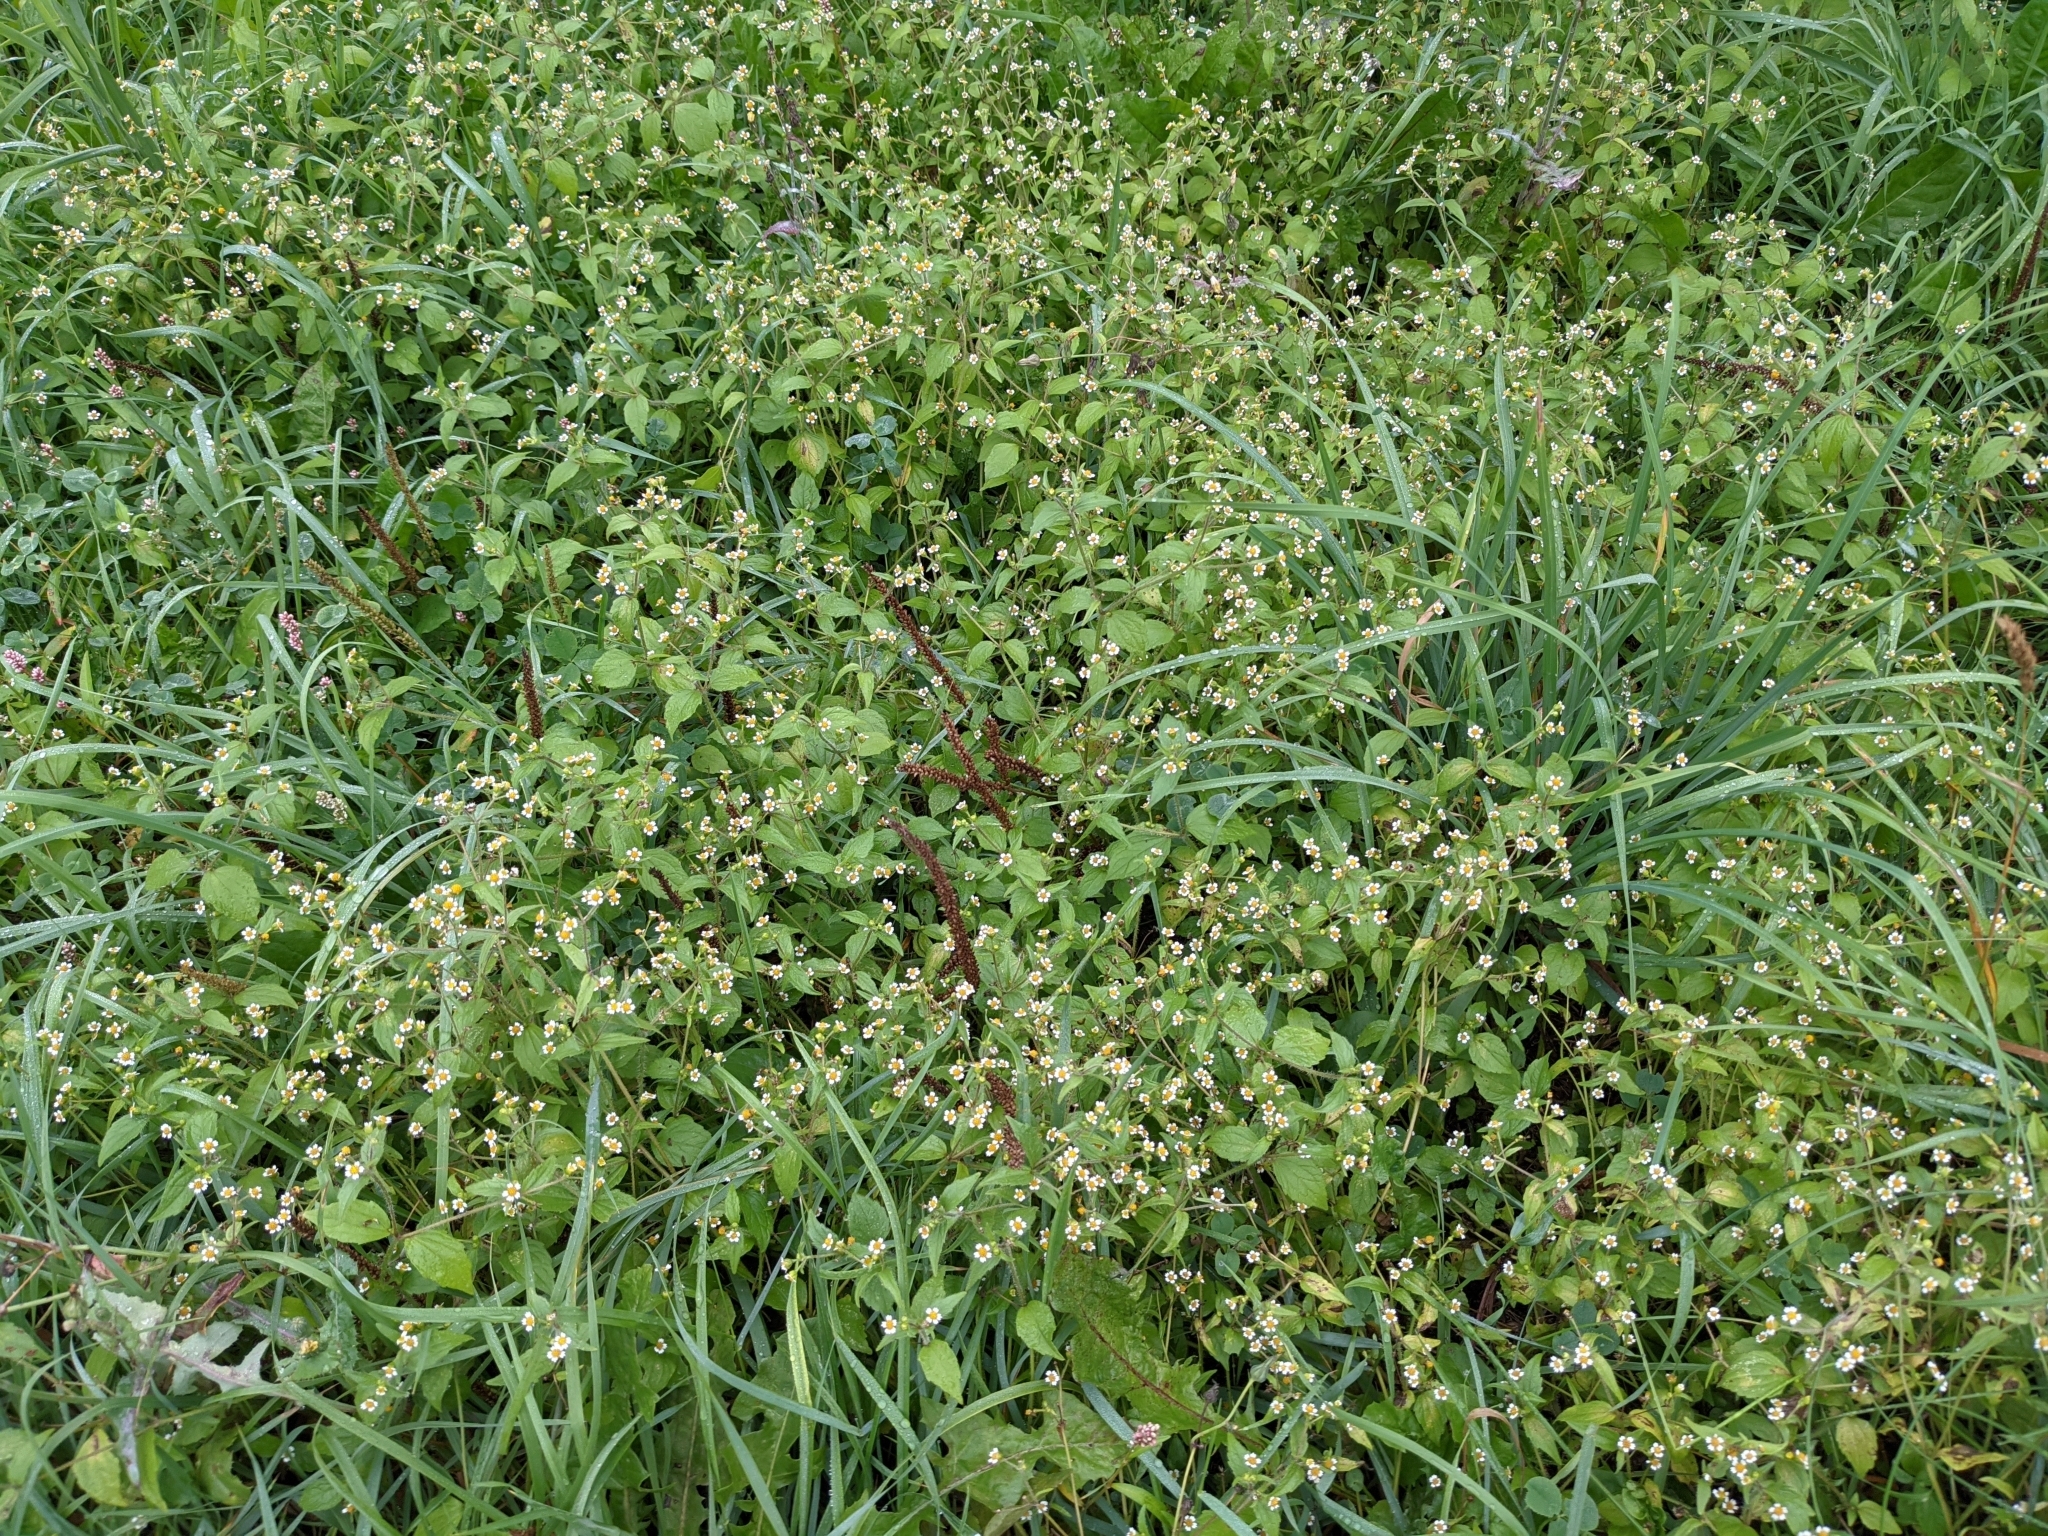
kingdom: Plantae
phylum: Tracheophyta
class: Magnoliopsida
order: Asterales
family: Asteraceae
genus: Galinsoga
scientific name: Galinsoga quadriradiata
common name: Shaggy soldier
